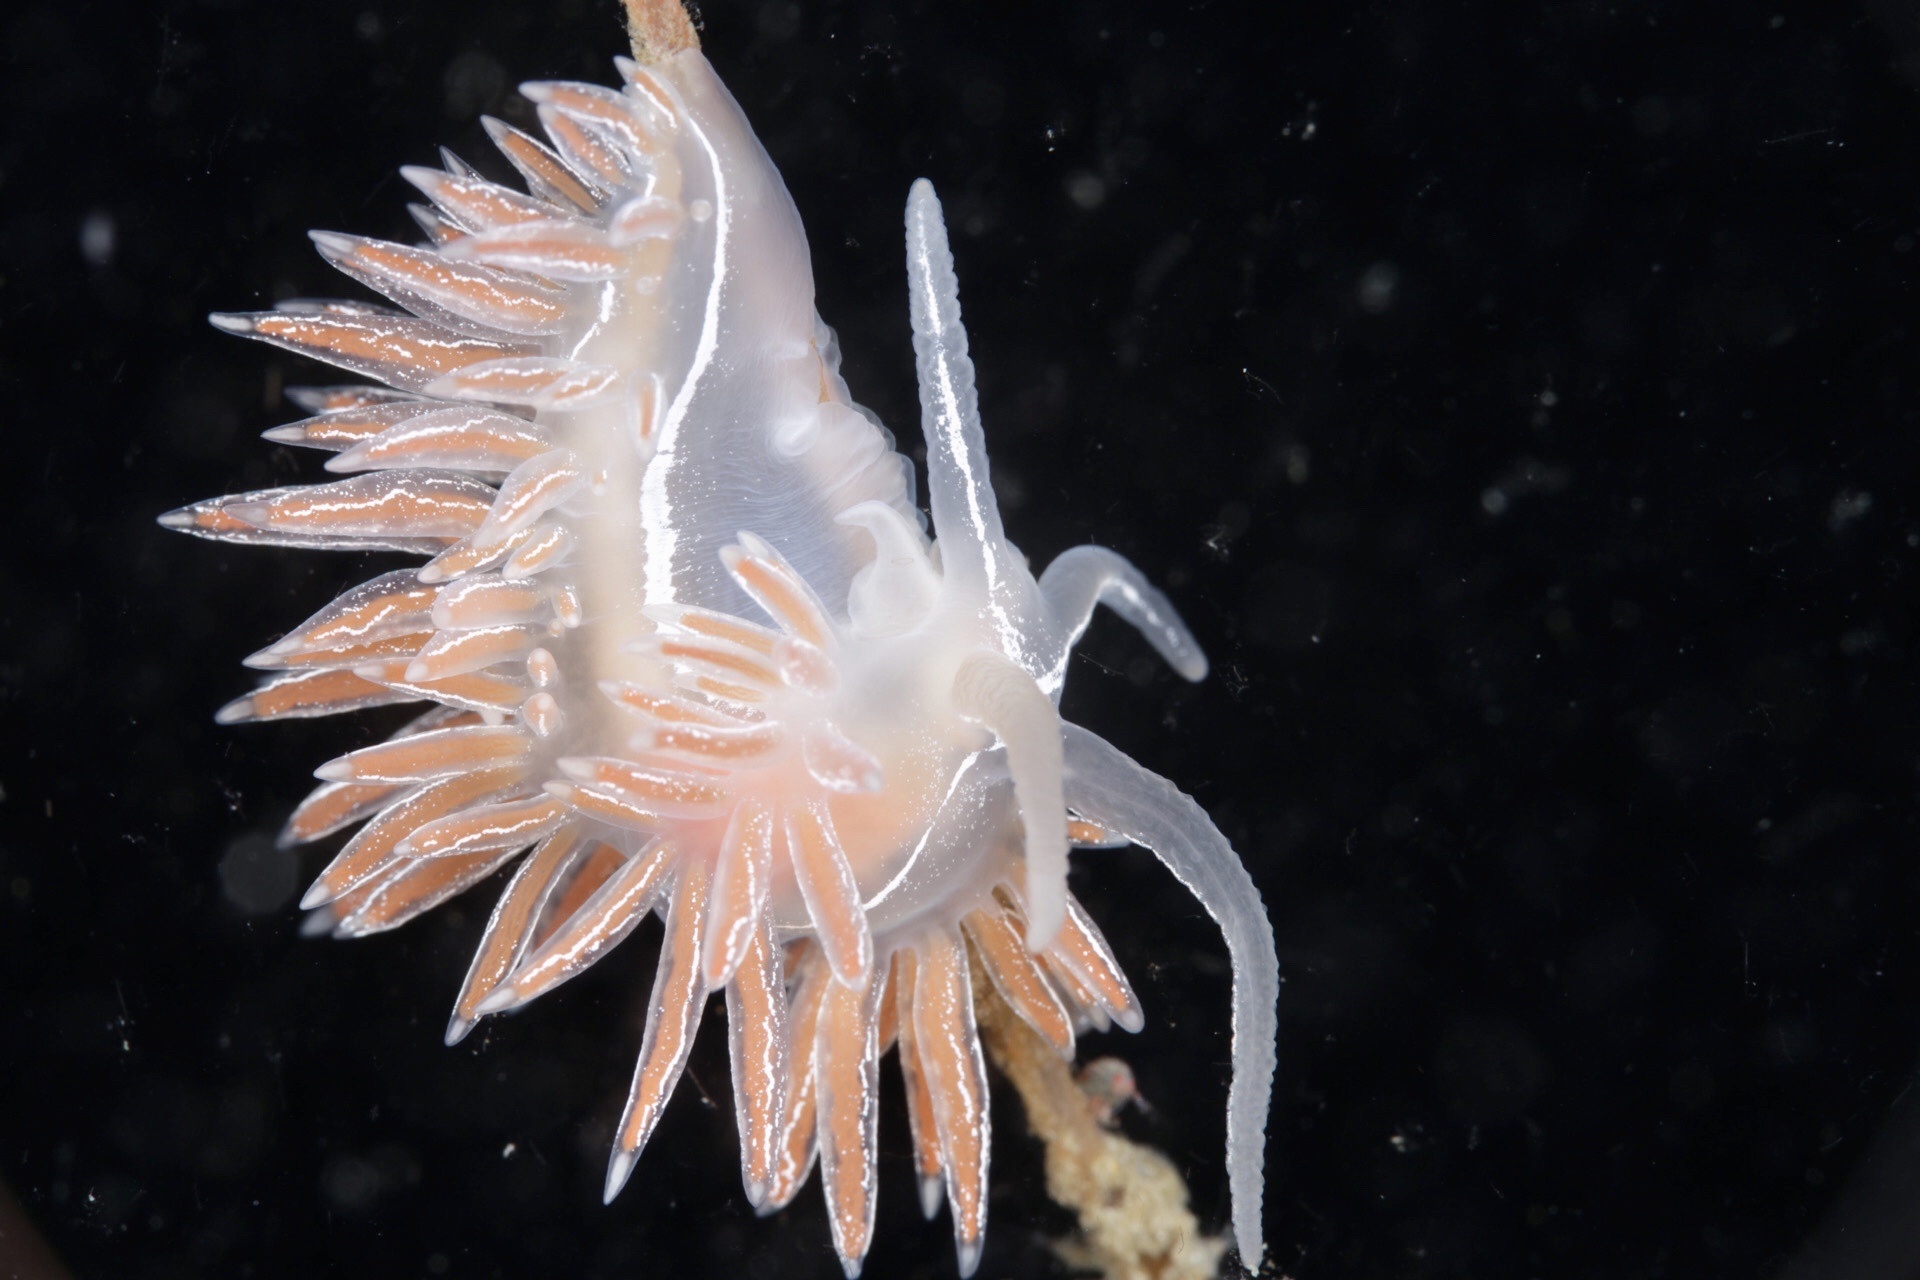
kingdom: Animalia
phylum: Mollusca
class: Gastropoda
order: Nudibranchia
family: Coryphellidae
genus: Coryphella
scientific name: Coryphella chriskaugei
